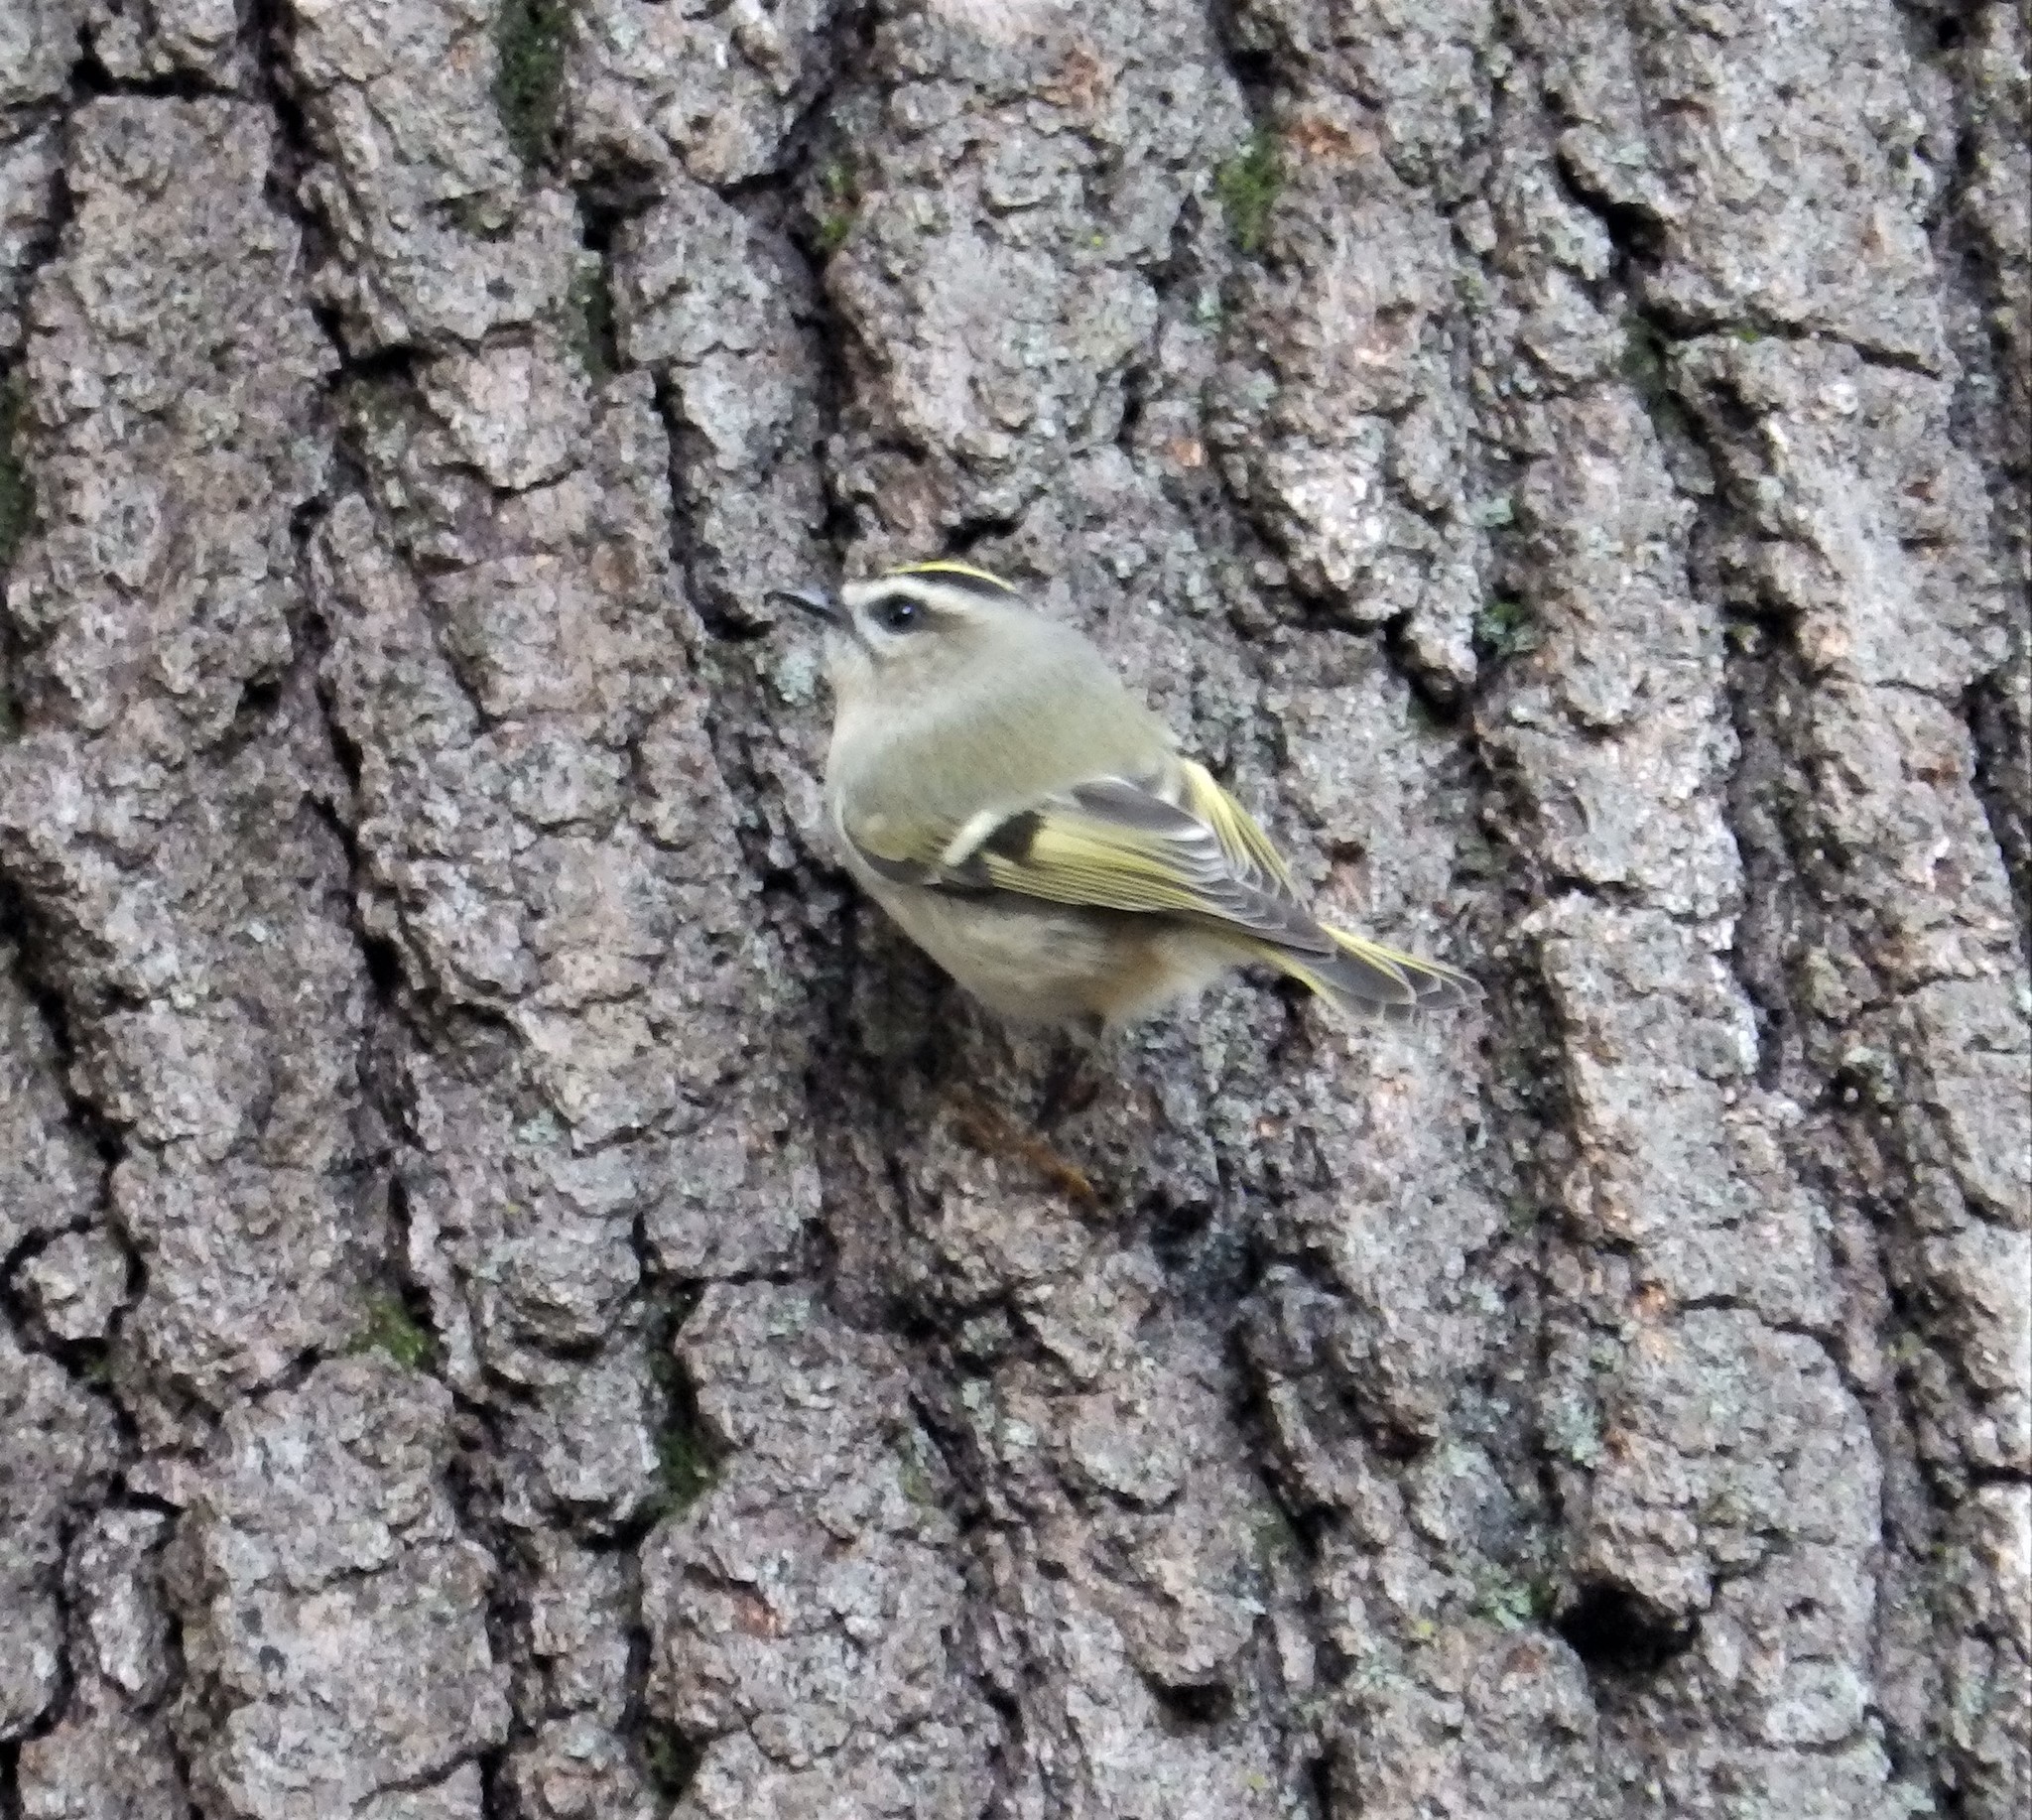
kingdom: Animalia
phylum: Chordata
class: Aves
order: Passeriformes
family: Regulidae
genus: Regulus
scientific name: Regulus satrapa
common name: Golden-crowned kinglet
